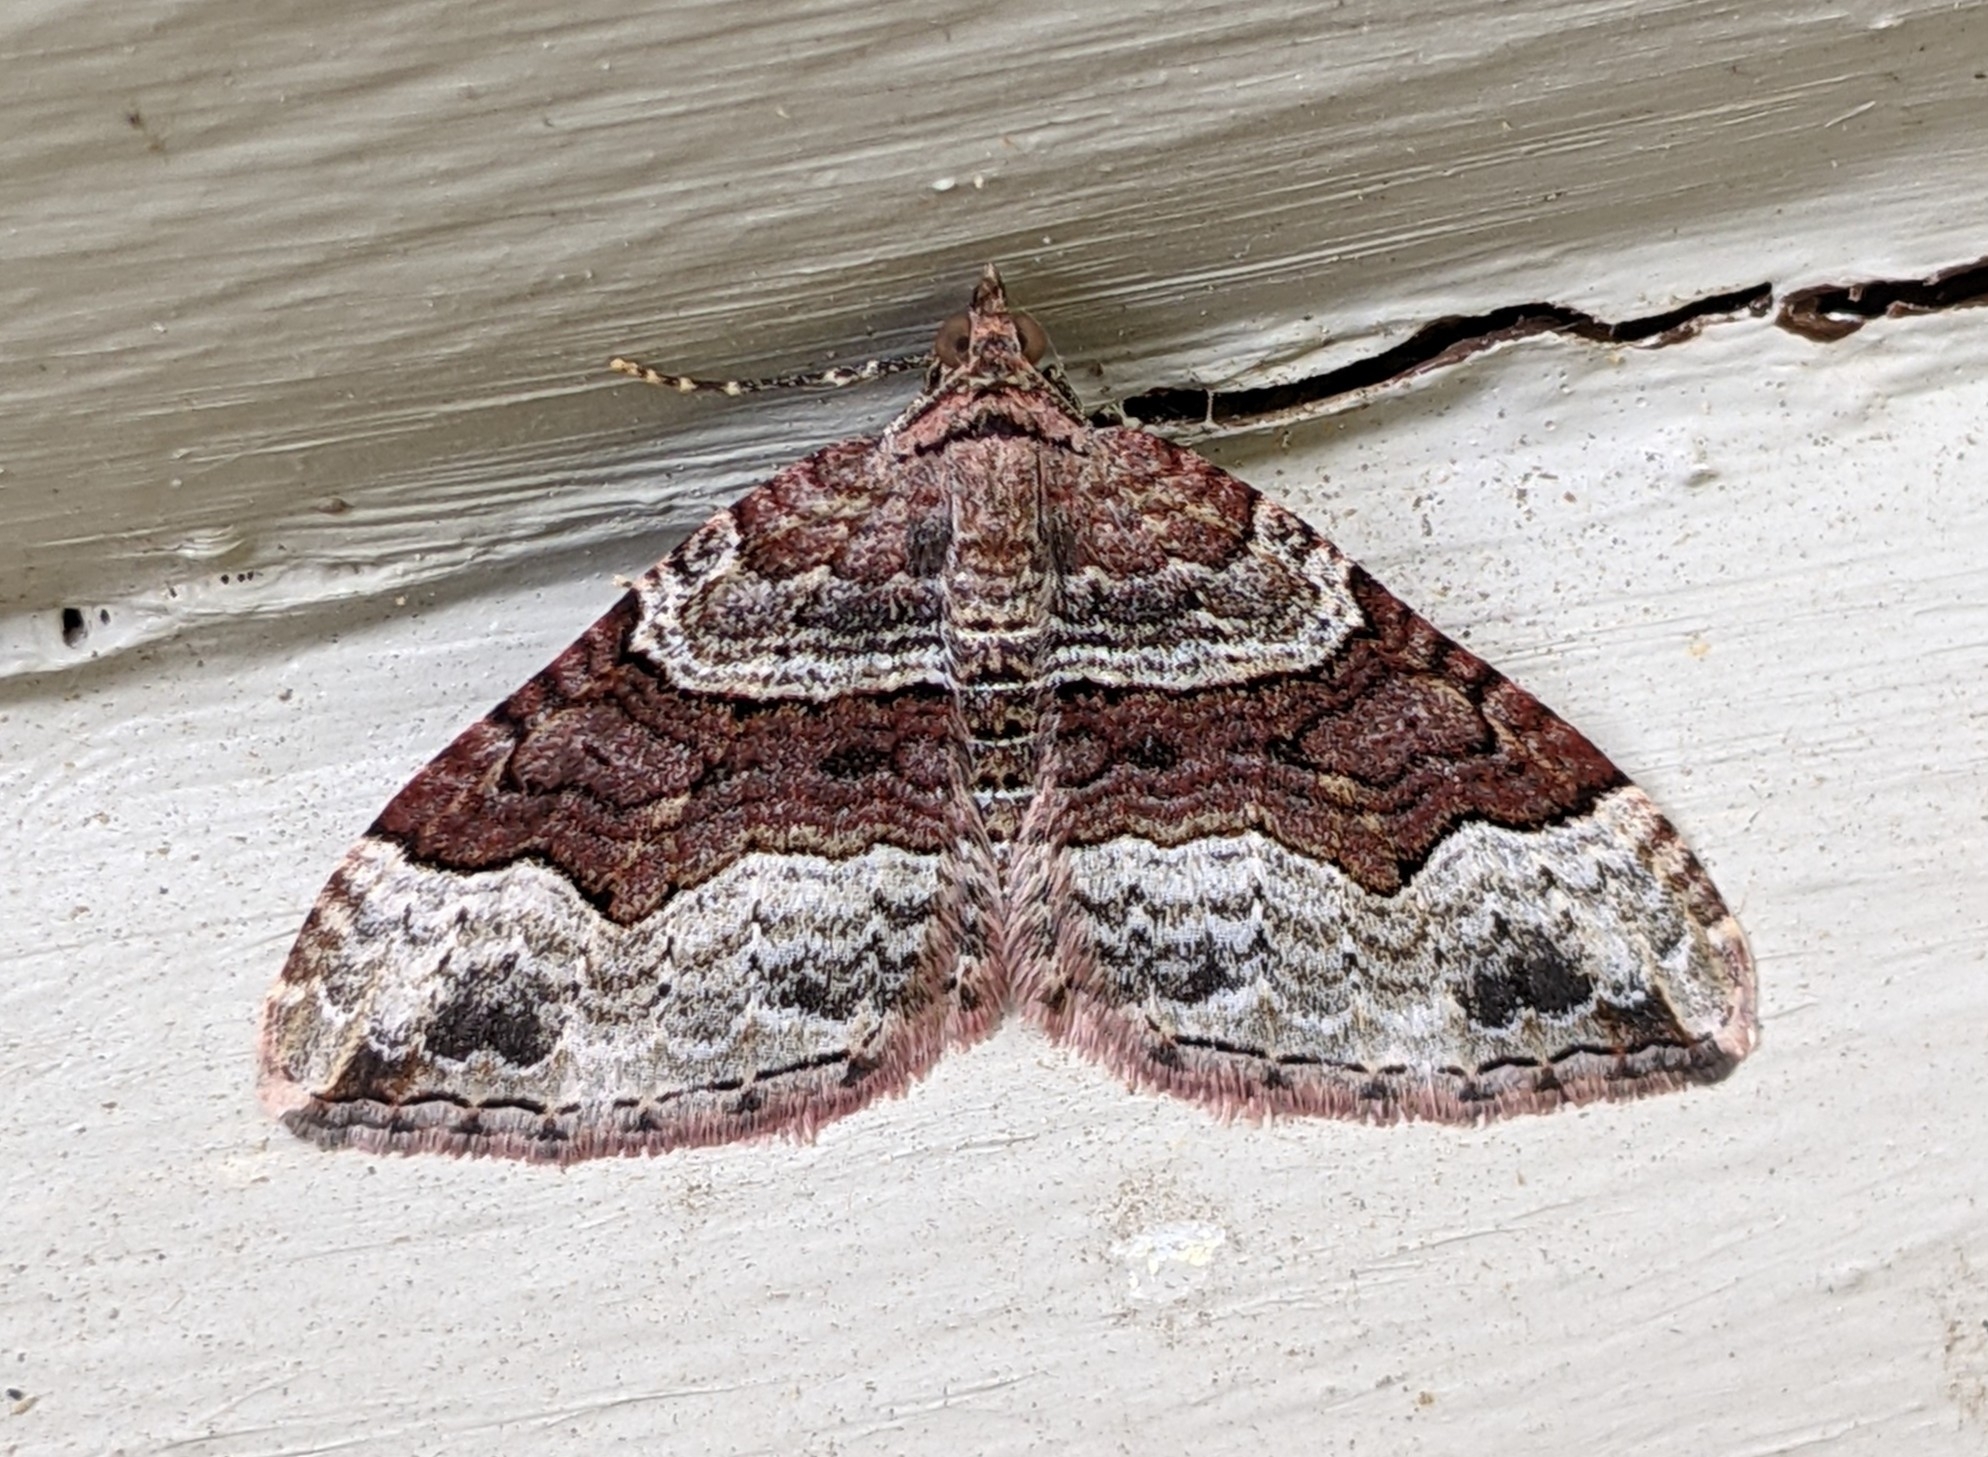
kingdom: Animalia
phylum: Arthropoda
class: Insecta
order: Lepidoptera
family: Geometridae
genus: Xanthorhoe
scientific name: Xanthorhoe defensaria
